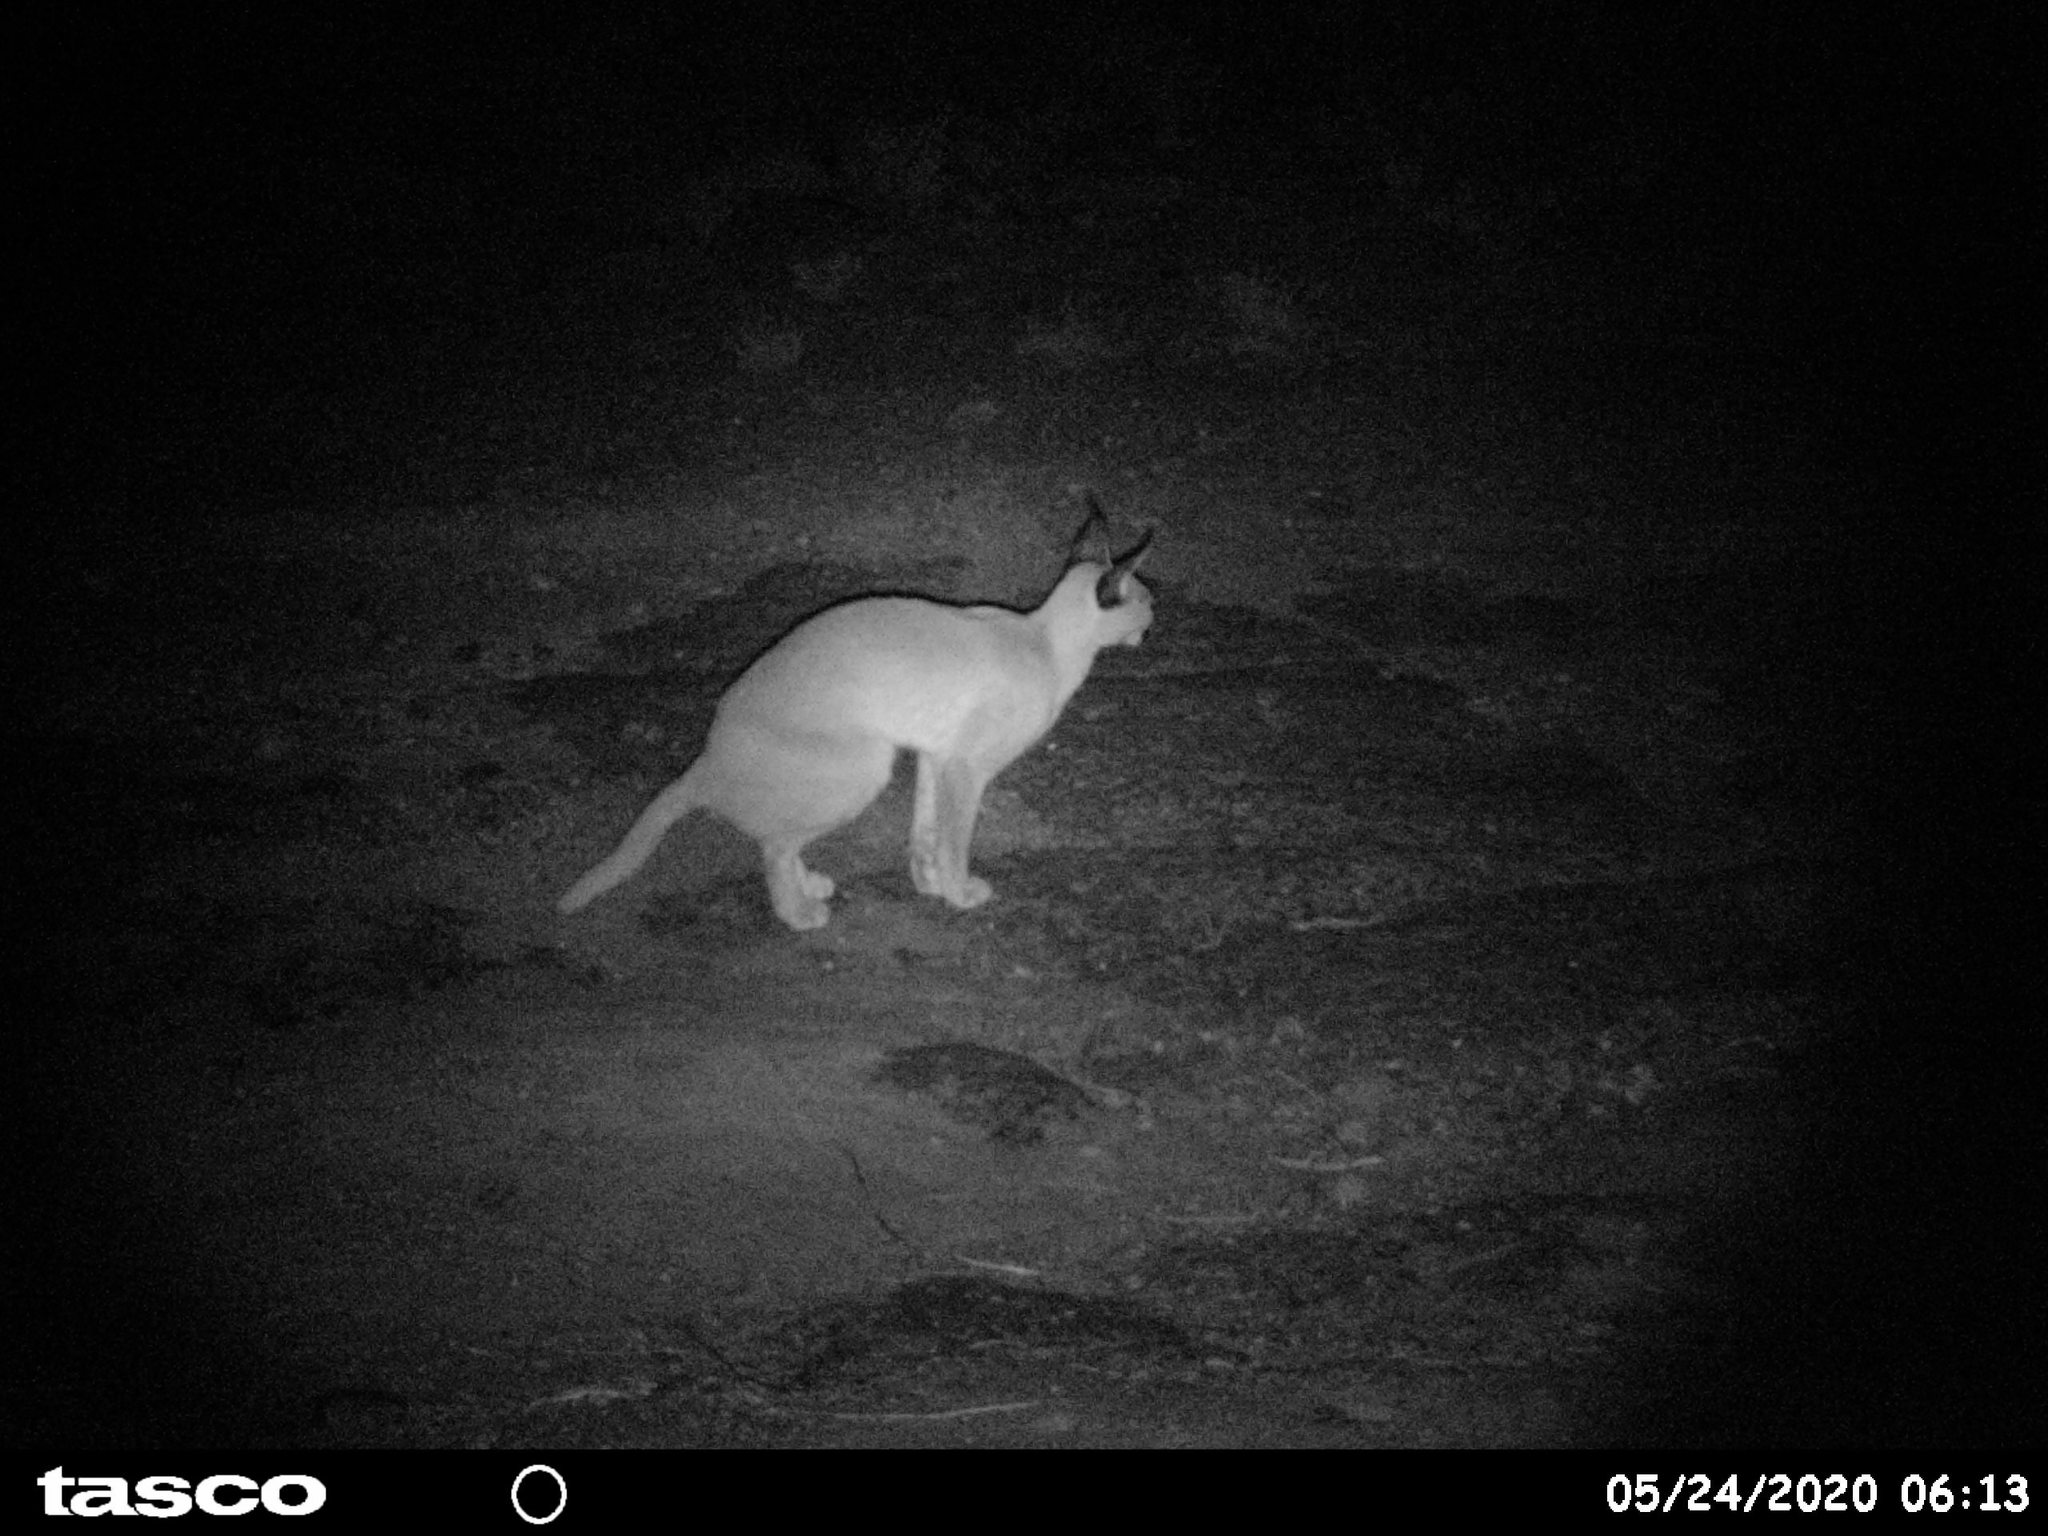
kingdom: Animalia
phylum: Chordata
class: Mammalia
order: Carnivora
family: Felidae
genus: Caracal
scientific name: Caracal caracal
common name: Caracal
